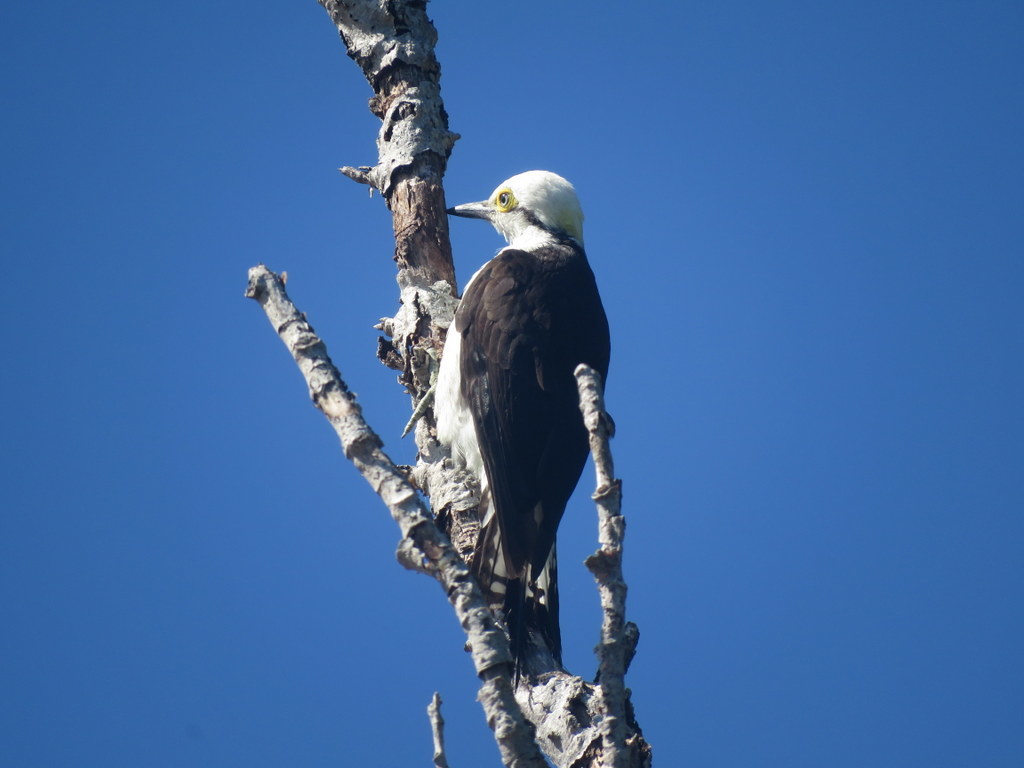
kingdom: Animalia
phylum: Chordata
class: Aves
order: Piciformes
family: Picidae
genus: Melanerpes
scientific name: Melanerpes candidus
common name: White woodpecker
